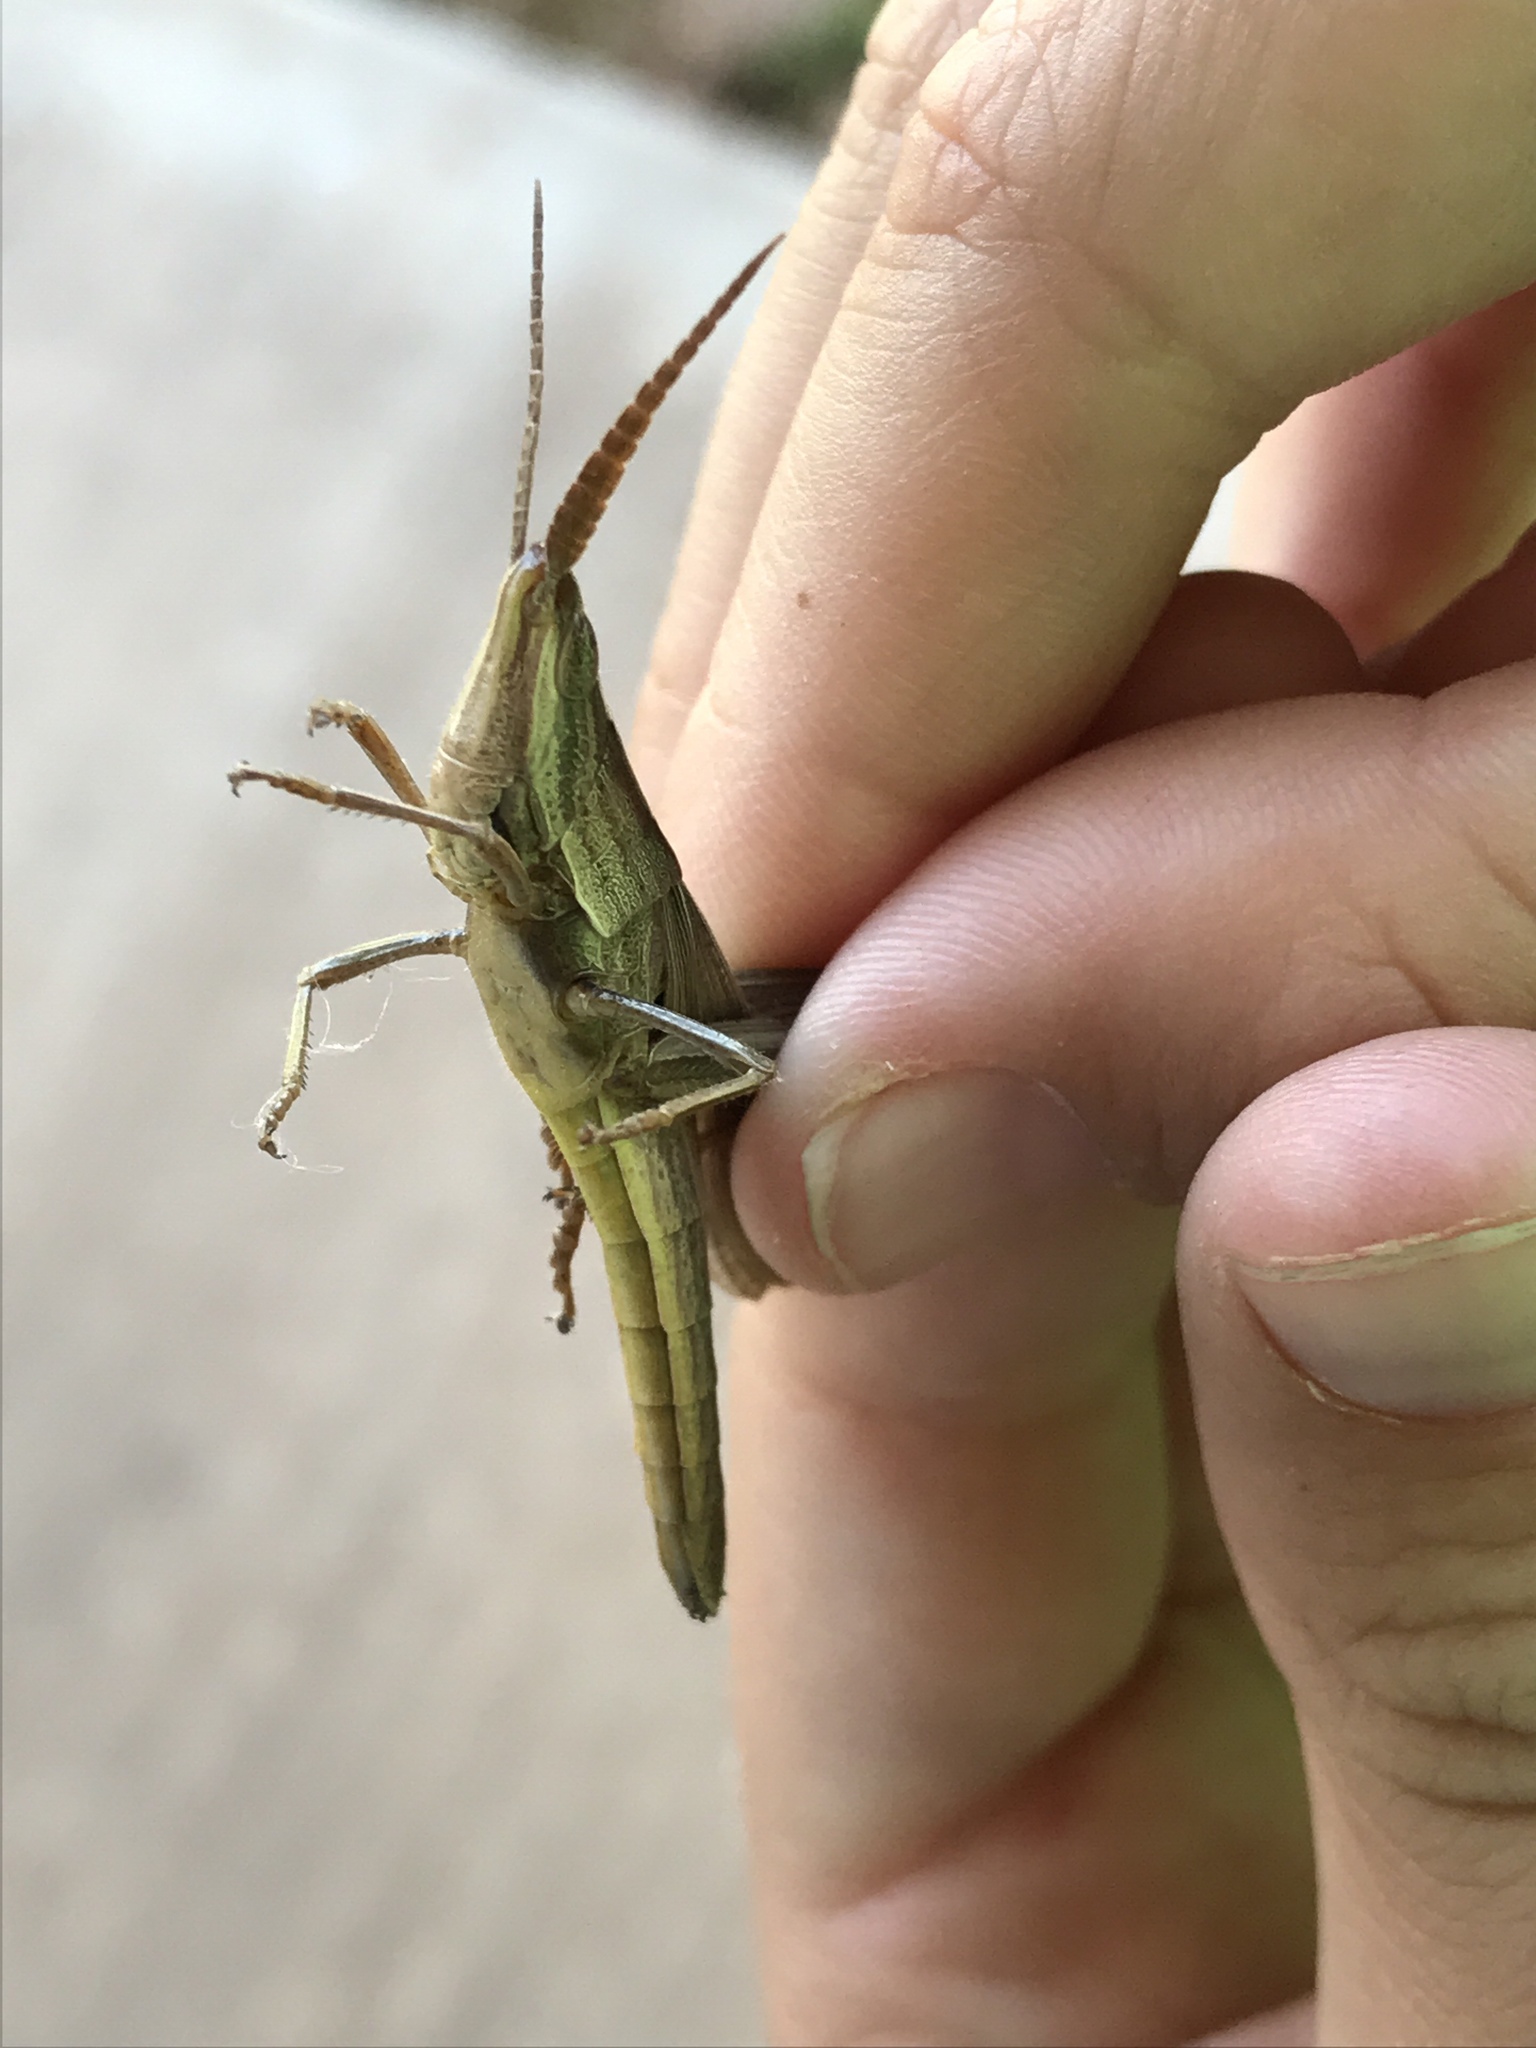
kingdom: Animalia
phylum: Arthropoda
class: Insecta
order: Orthoptera
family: Acrididae
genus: Pseudopomala
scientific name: Pseudopomala brachyptera
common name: Bunchgrass grasshopper
